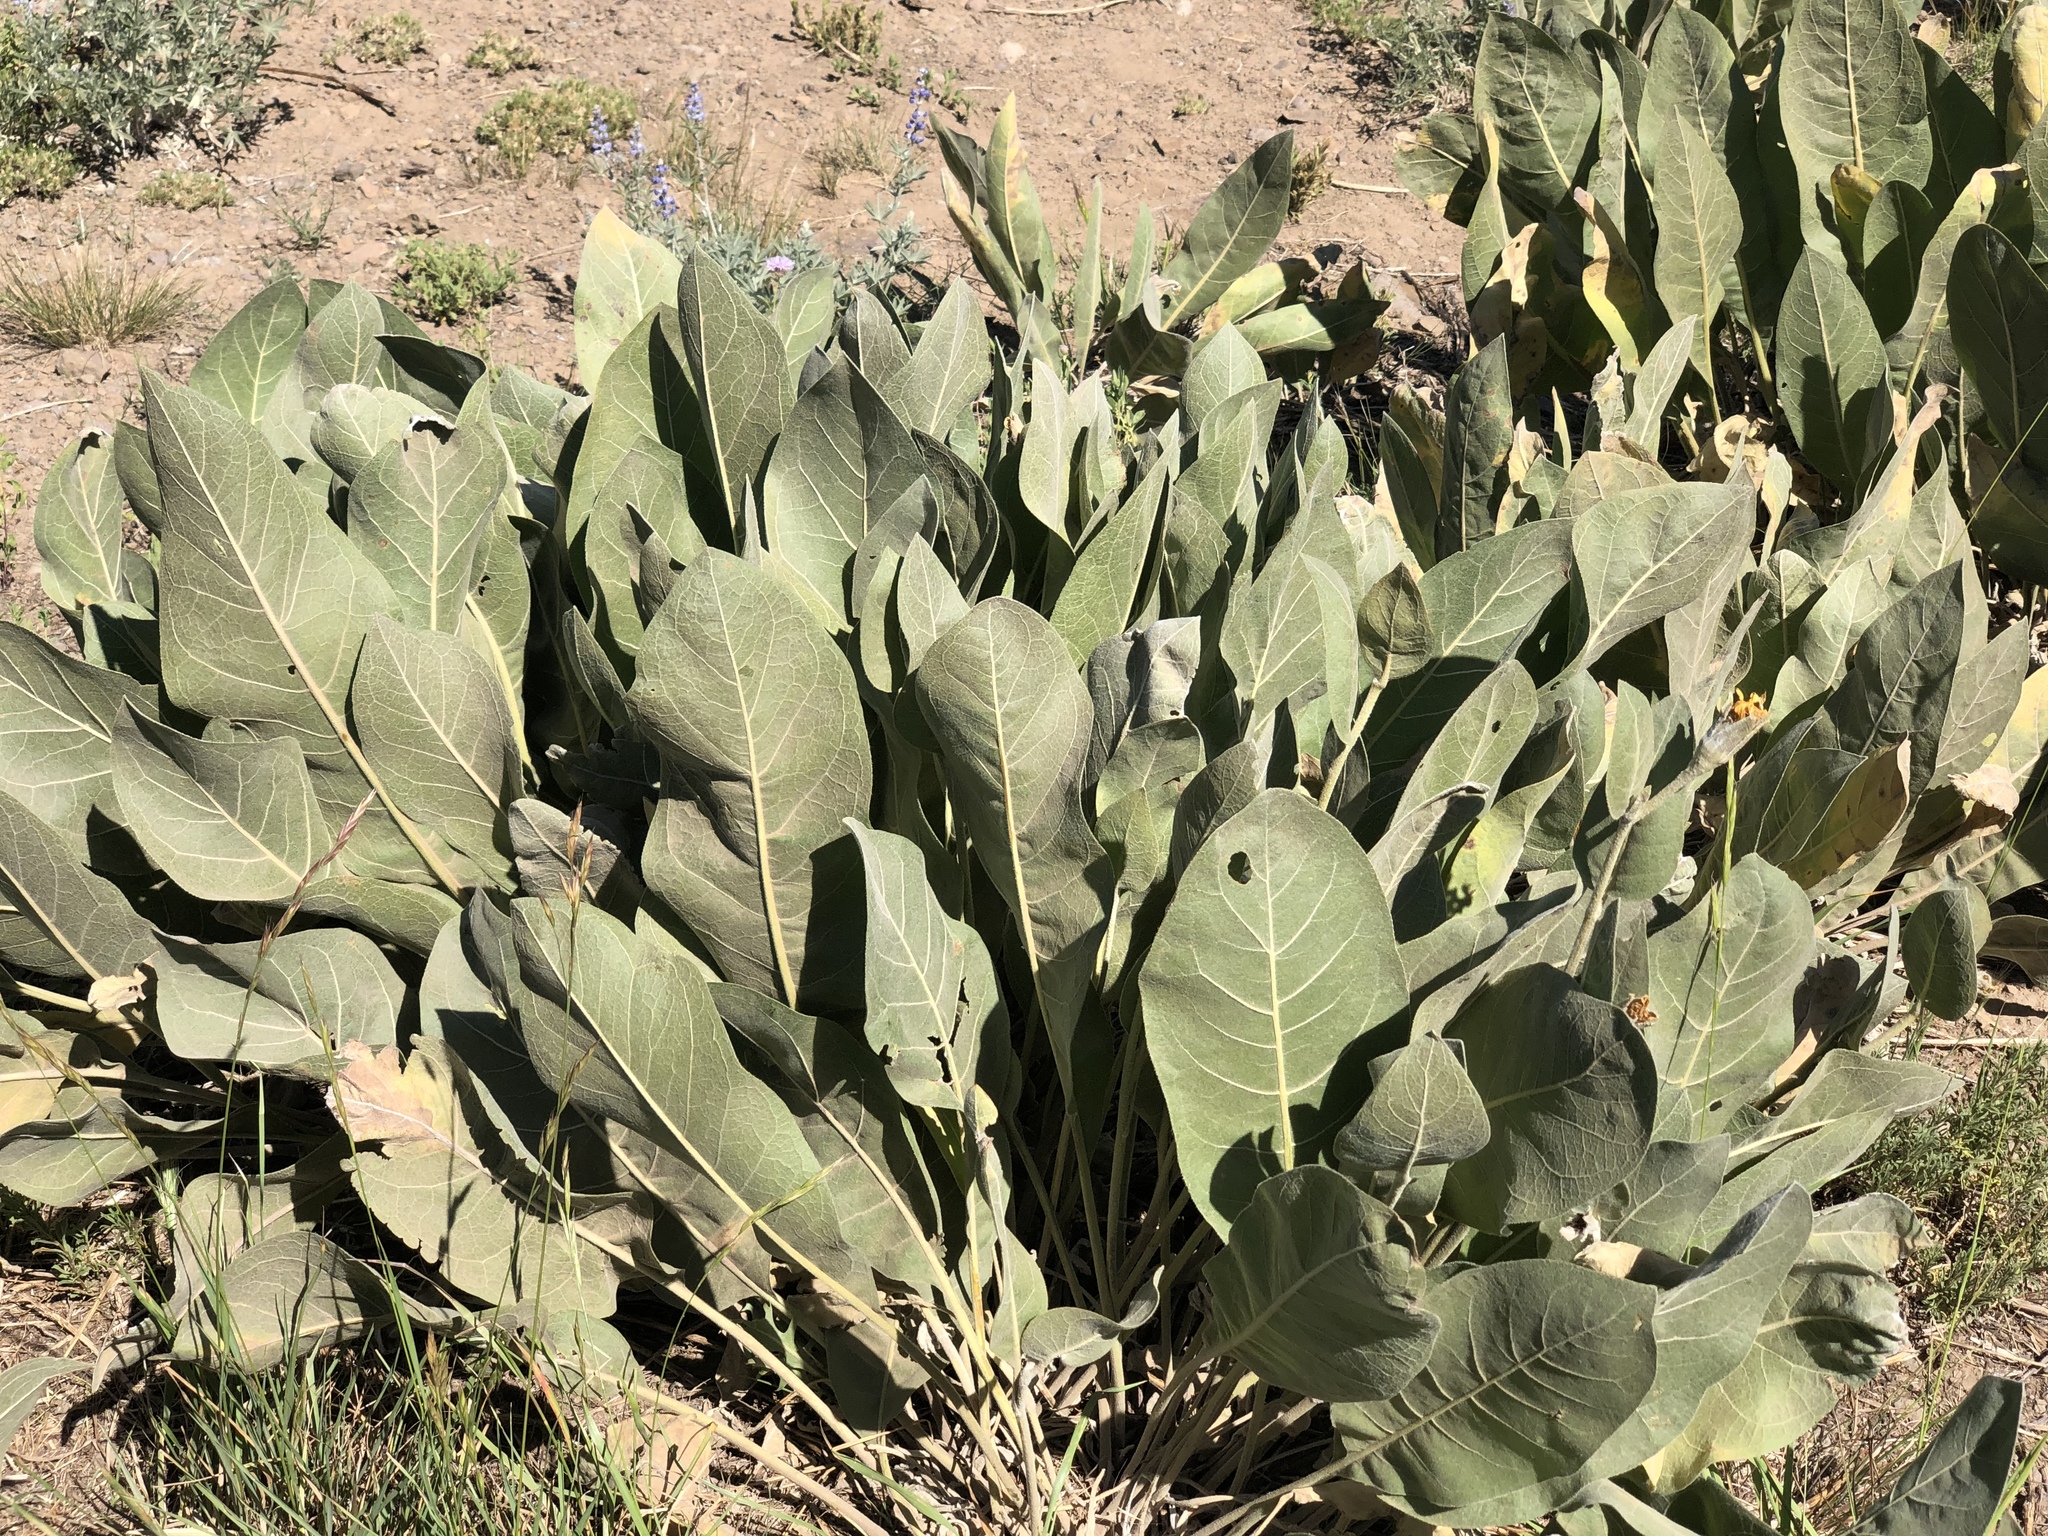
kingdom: Plantae
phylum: Tracheophyta
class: Magnoliopsida
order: Asterales
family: Asteraceae
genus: Wyethia
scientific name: Wyethia mollis
